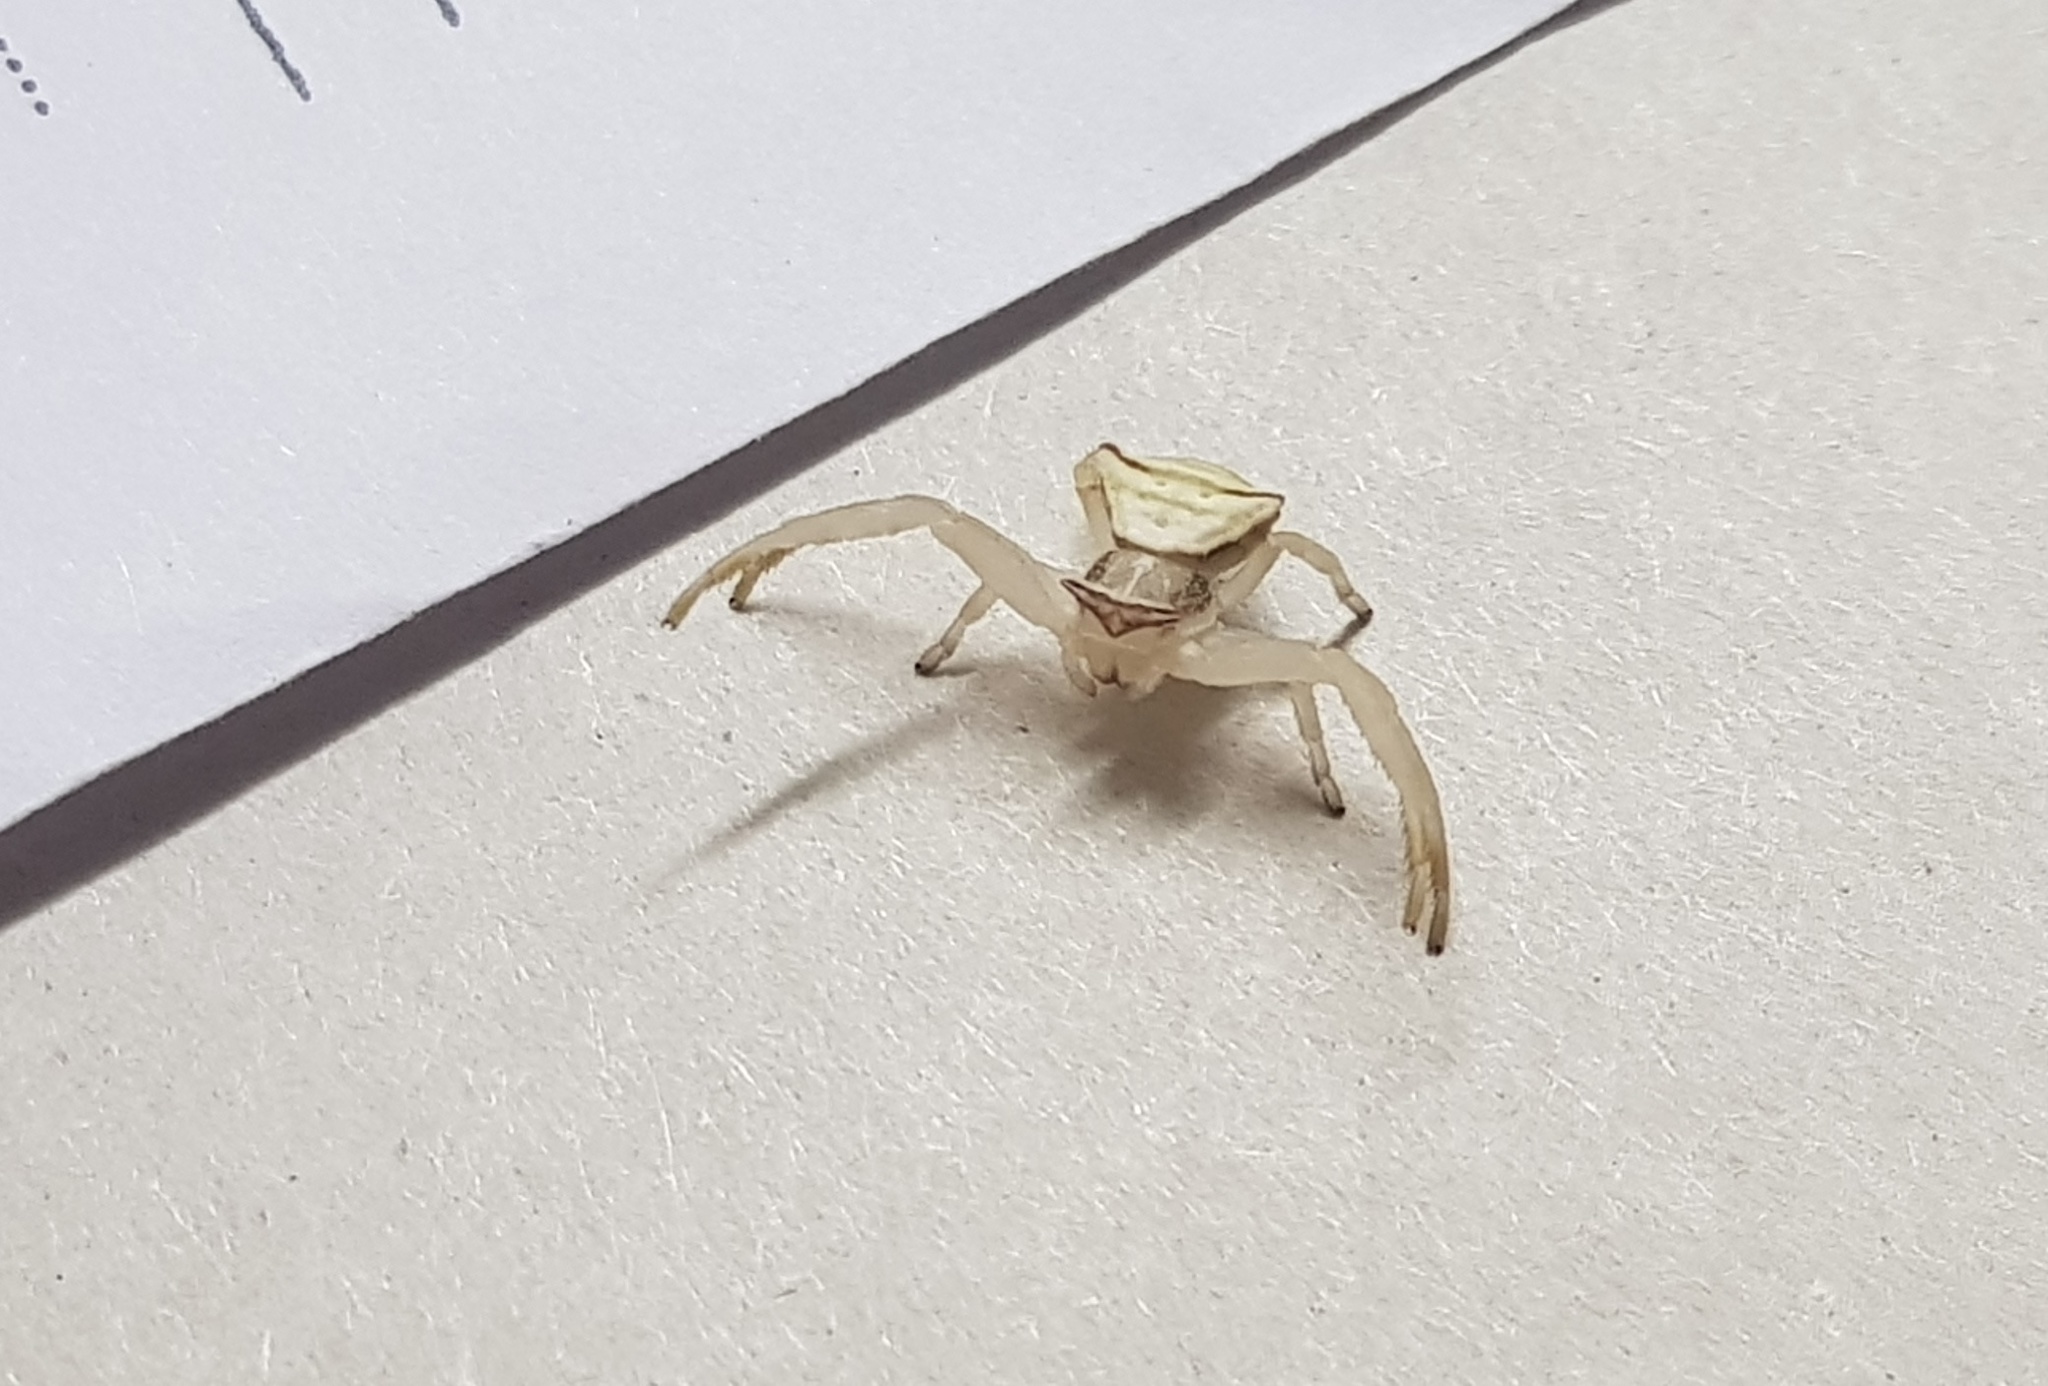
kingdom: Animalia
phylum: Arthropoda
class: Arachnida
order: Araneae
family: Thomisidae
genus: Thomisus
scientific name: Thomisus blandus
